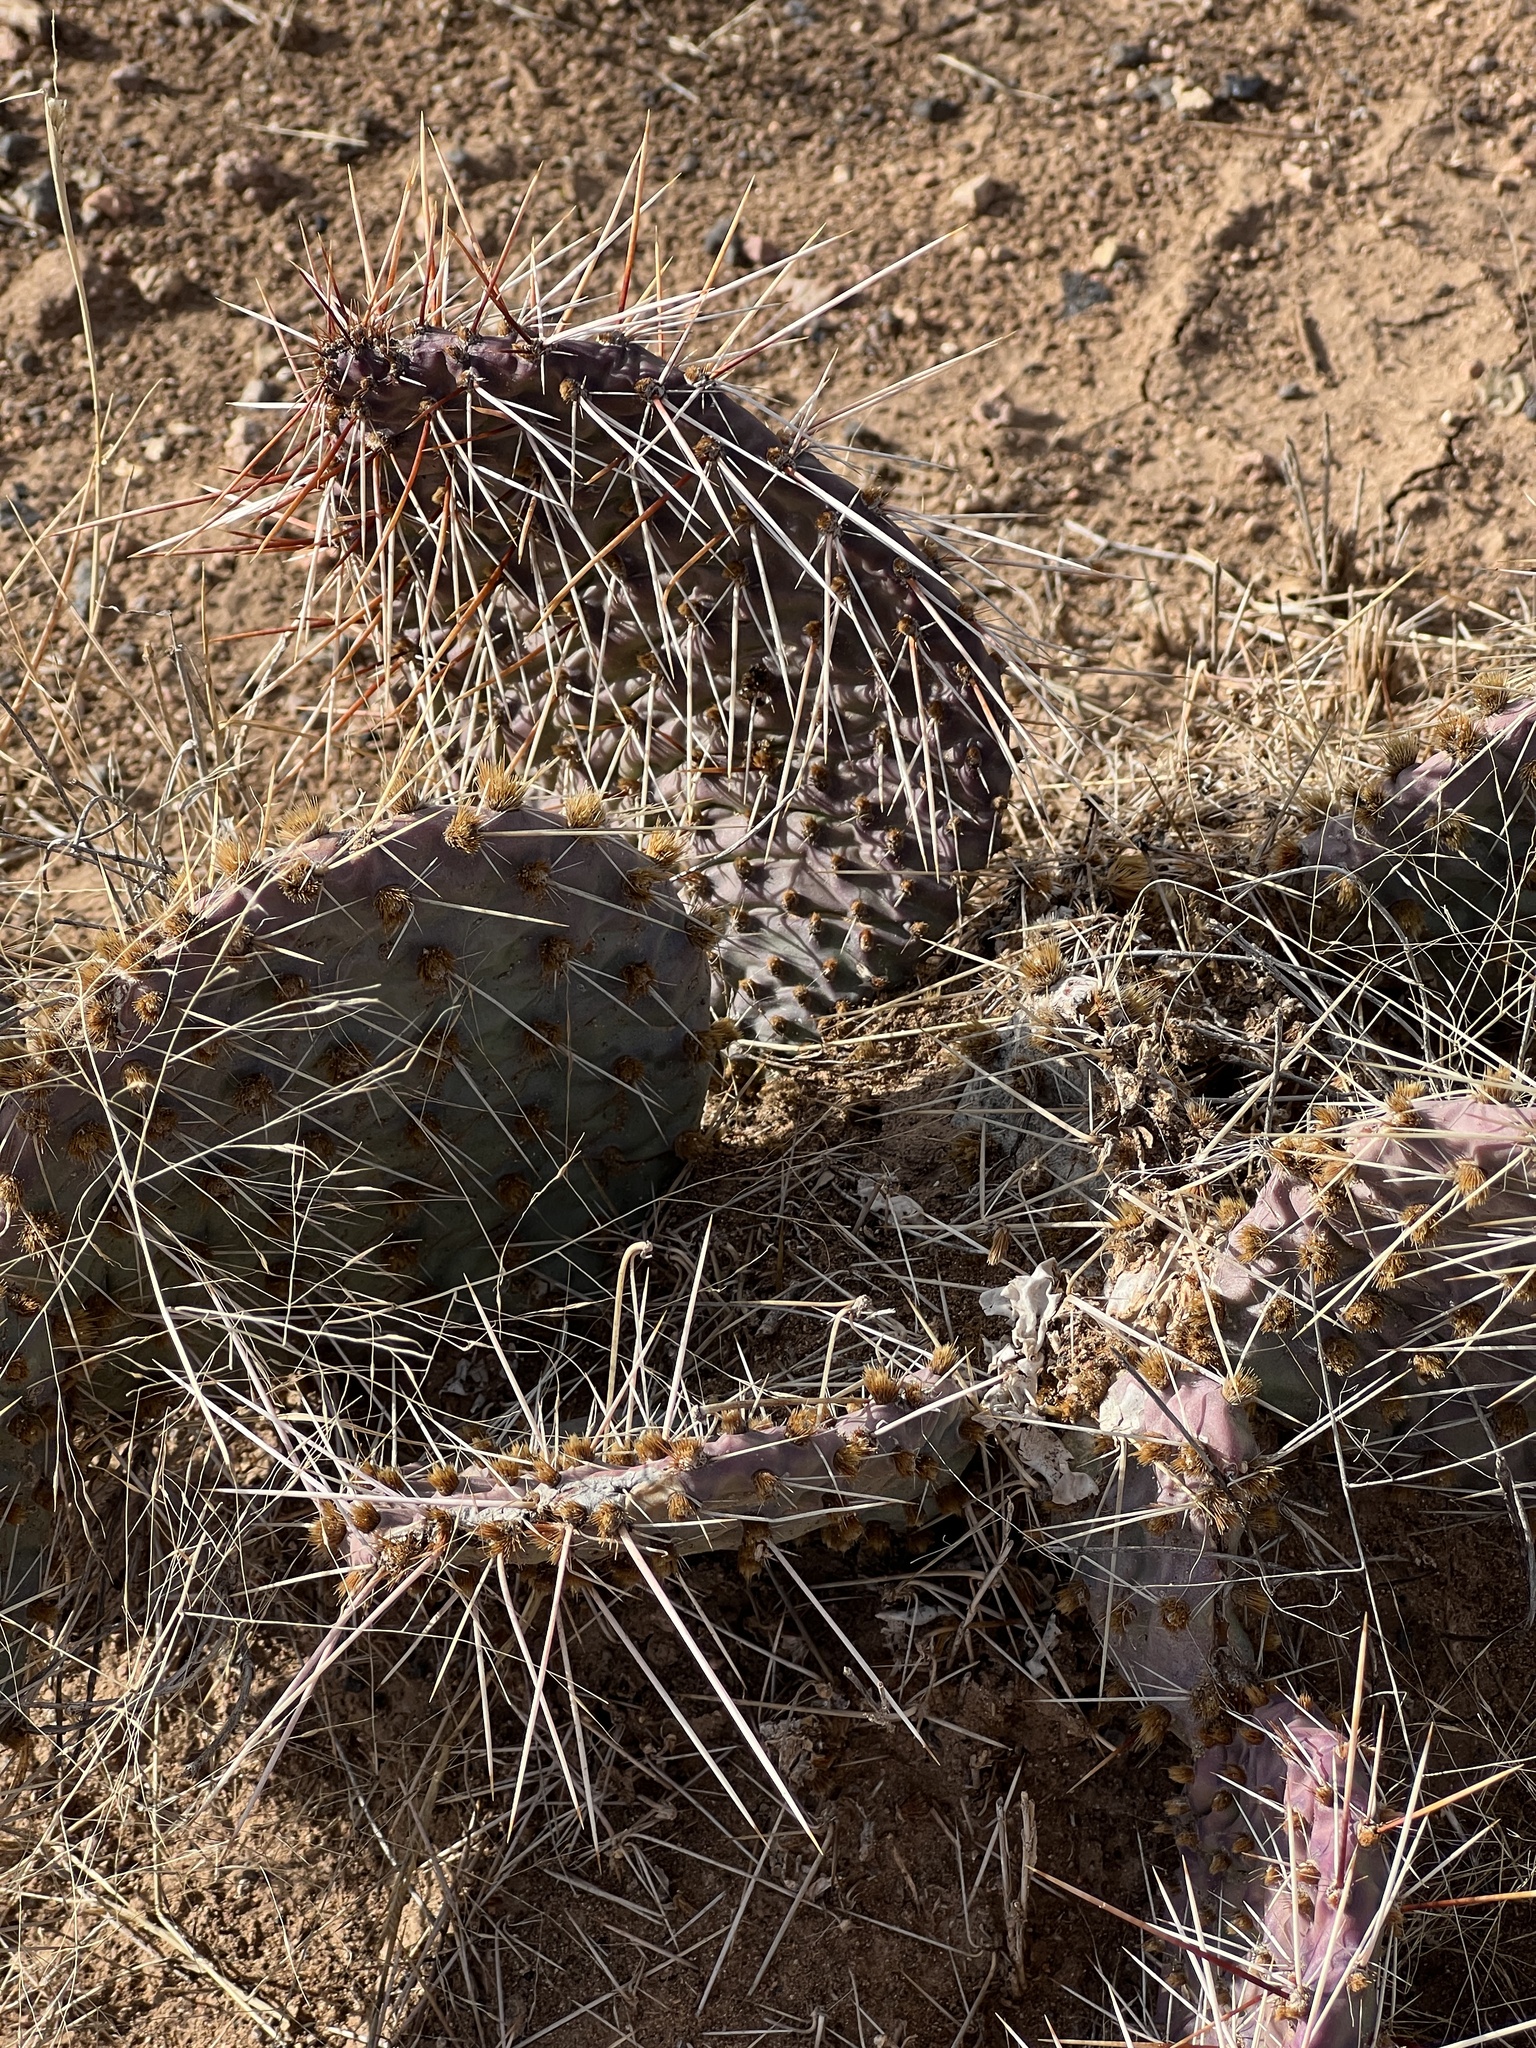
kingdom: Plantae
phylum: Tracheophyta
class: Magnoliopsida
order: Caryophyllales
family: Cactaceae
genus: Opuntia
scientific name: Opuntia macrorhiza
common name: Grassland pricklypear
